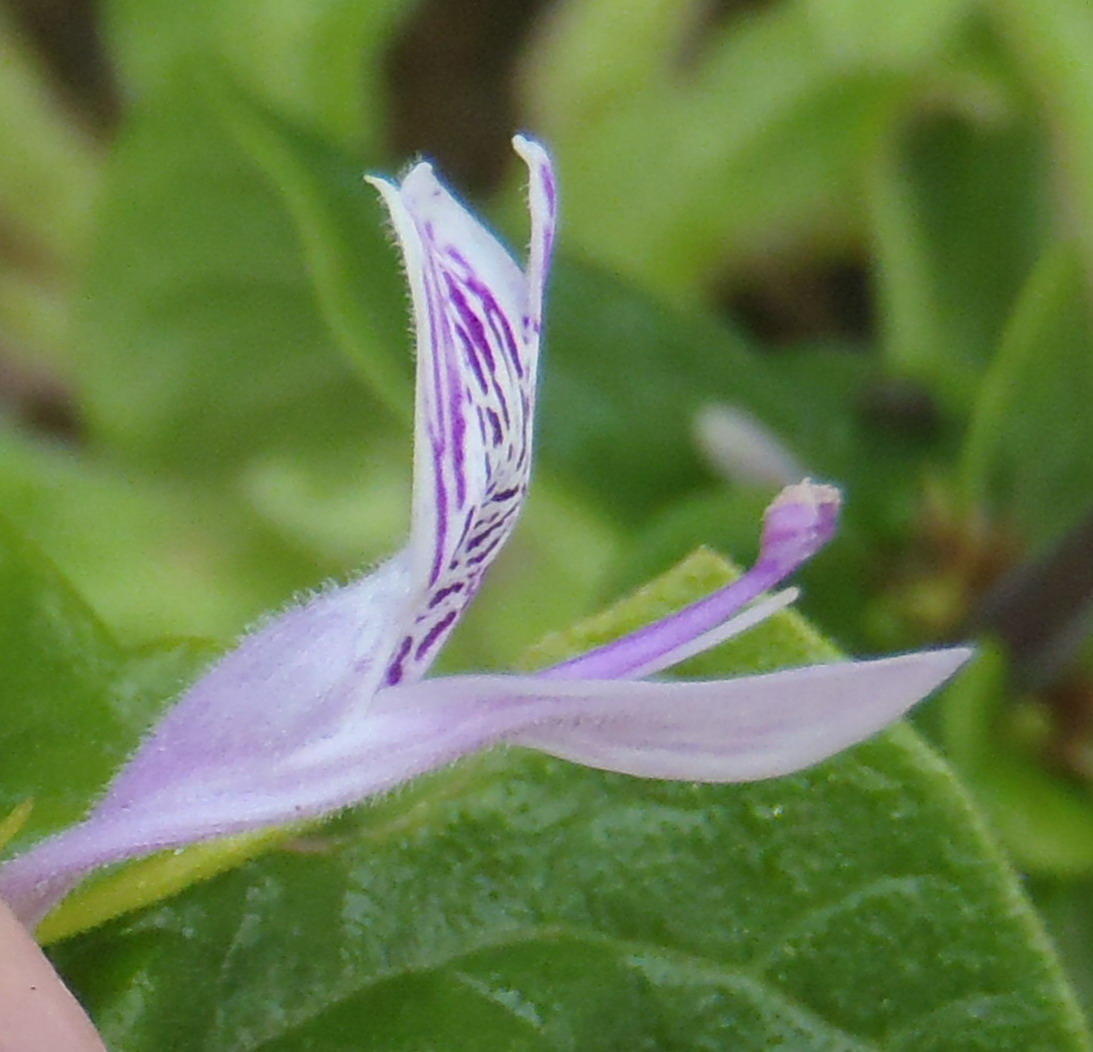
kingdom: Plantae
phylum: Tracheophyta
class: Magnoliopsida
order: Lamiales
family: Acanthaceae
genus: Hypoestes
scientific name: Hypoestes aristata
